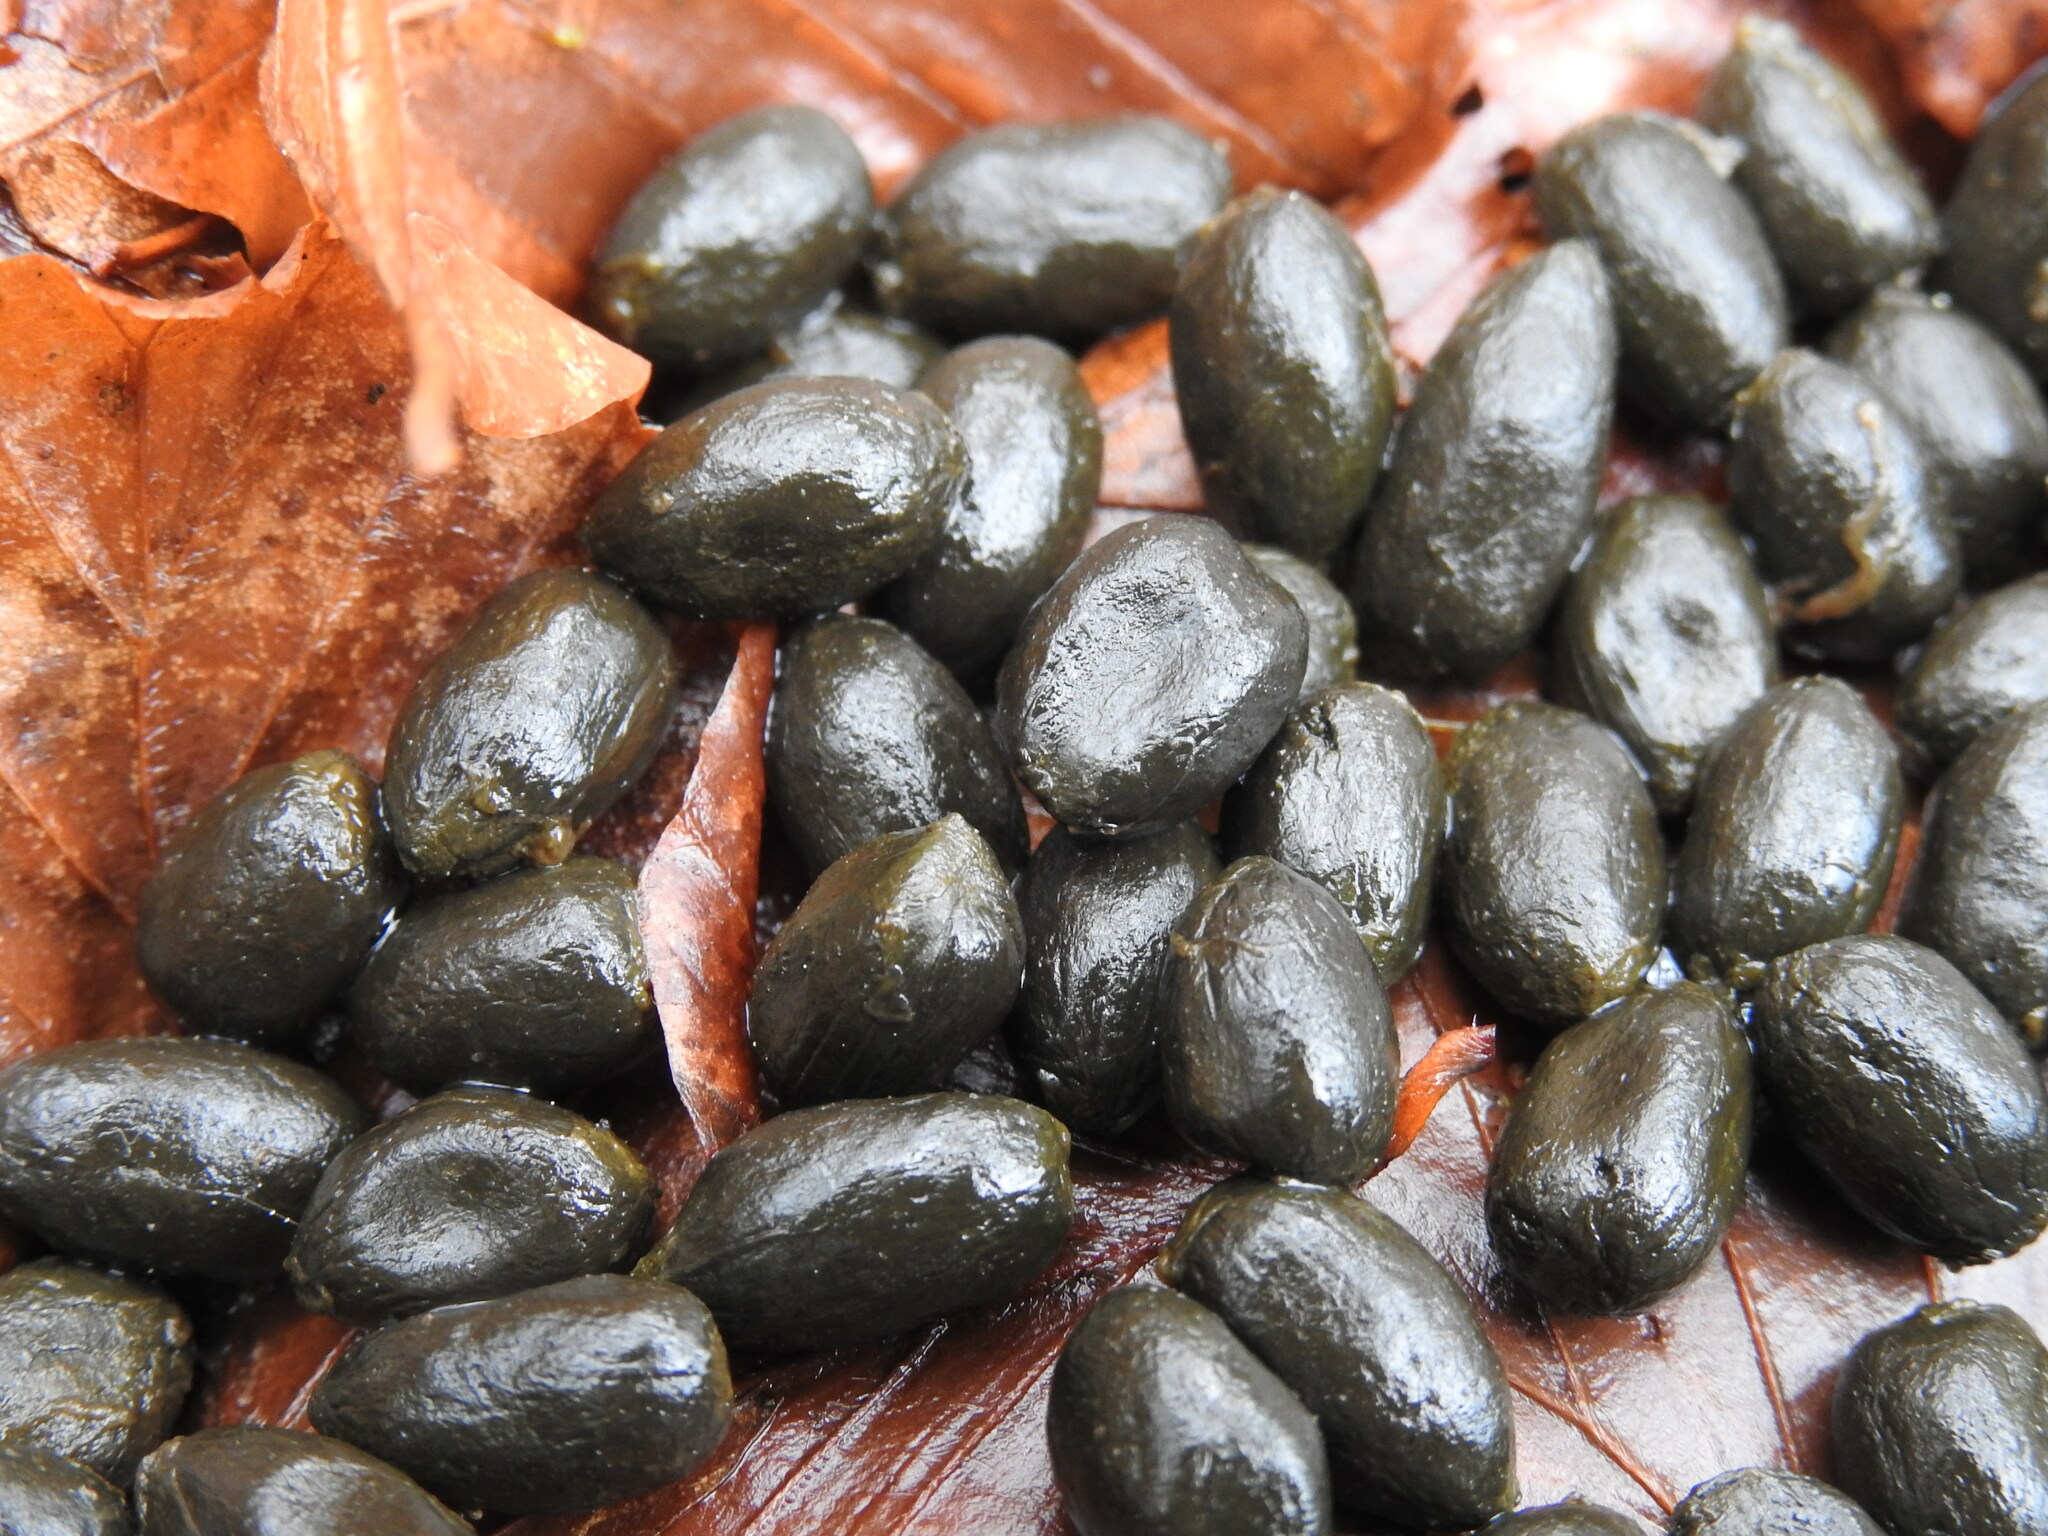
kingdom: Animalia
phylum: Chordata
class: Mammalia
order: Artiodactyla
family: Cervidae
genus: Capreolus
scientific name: Capreolus capreolus
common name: Western roe deer
